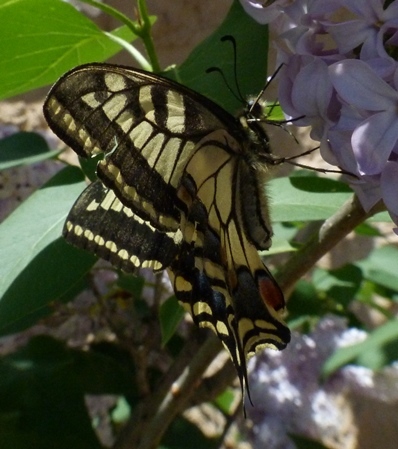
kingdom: Animalia
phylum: Arthropoda
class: Insecta
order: Lepidoptera
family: Papilionidae
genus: Papilio
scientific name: Papilio machaon
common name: Swallowtail
